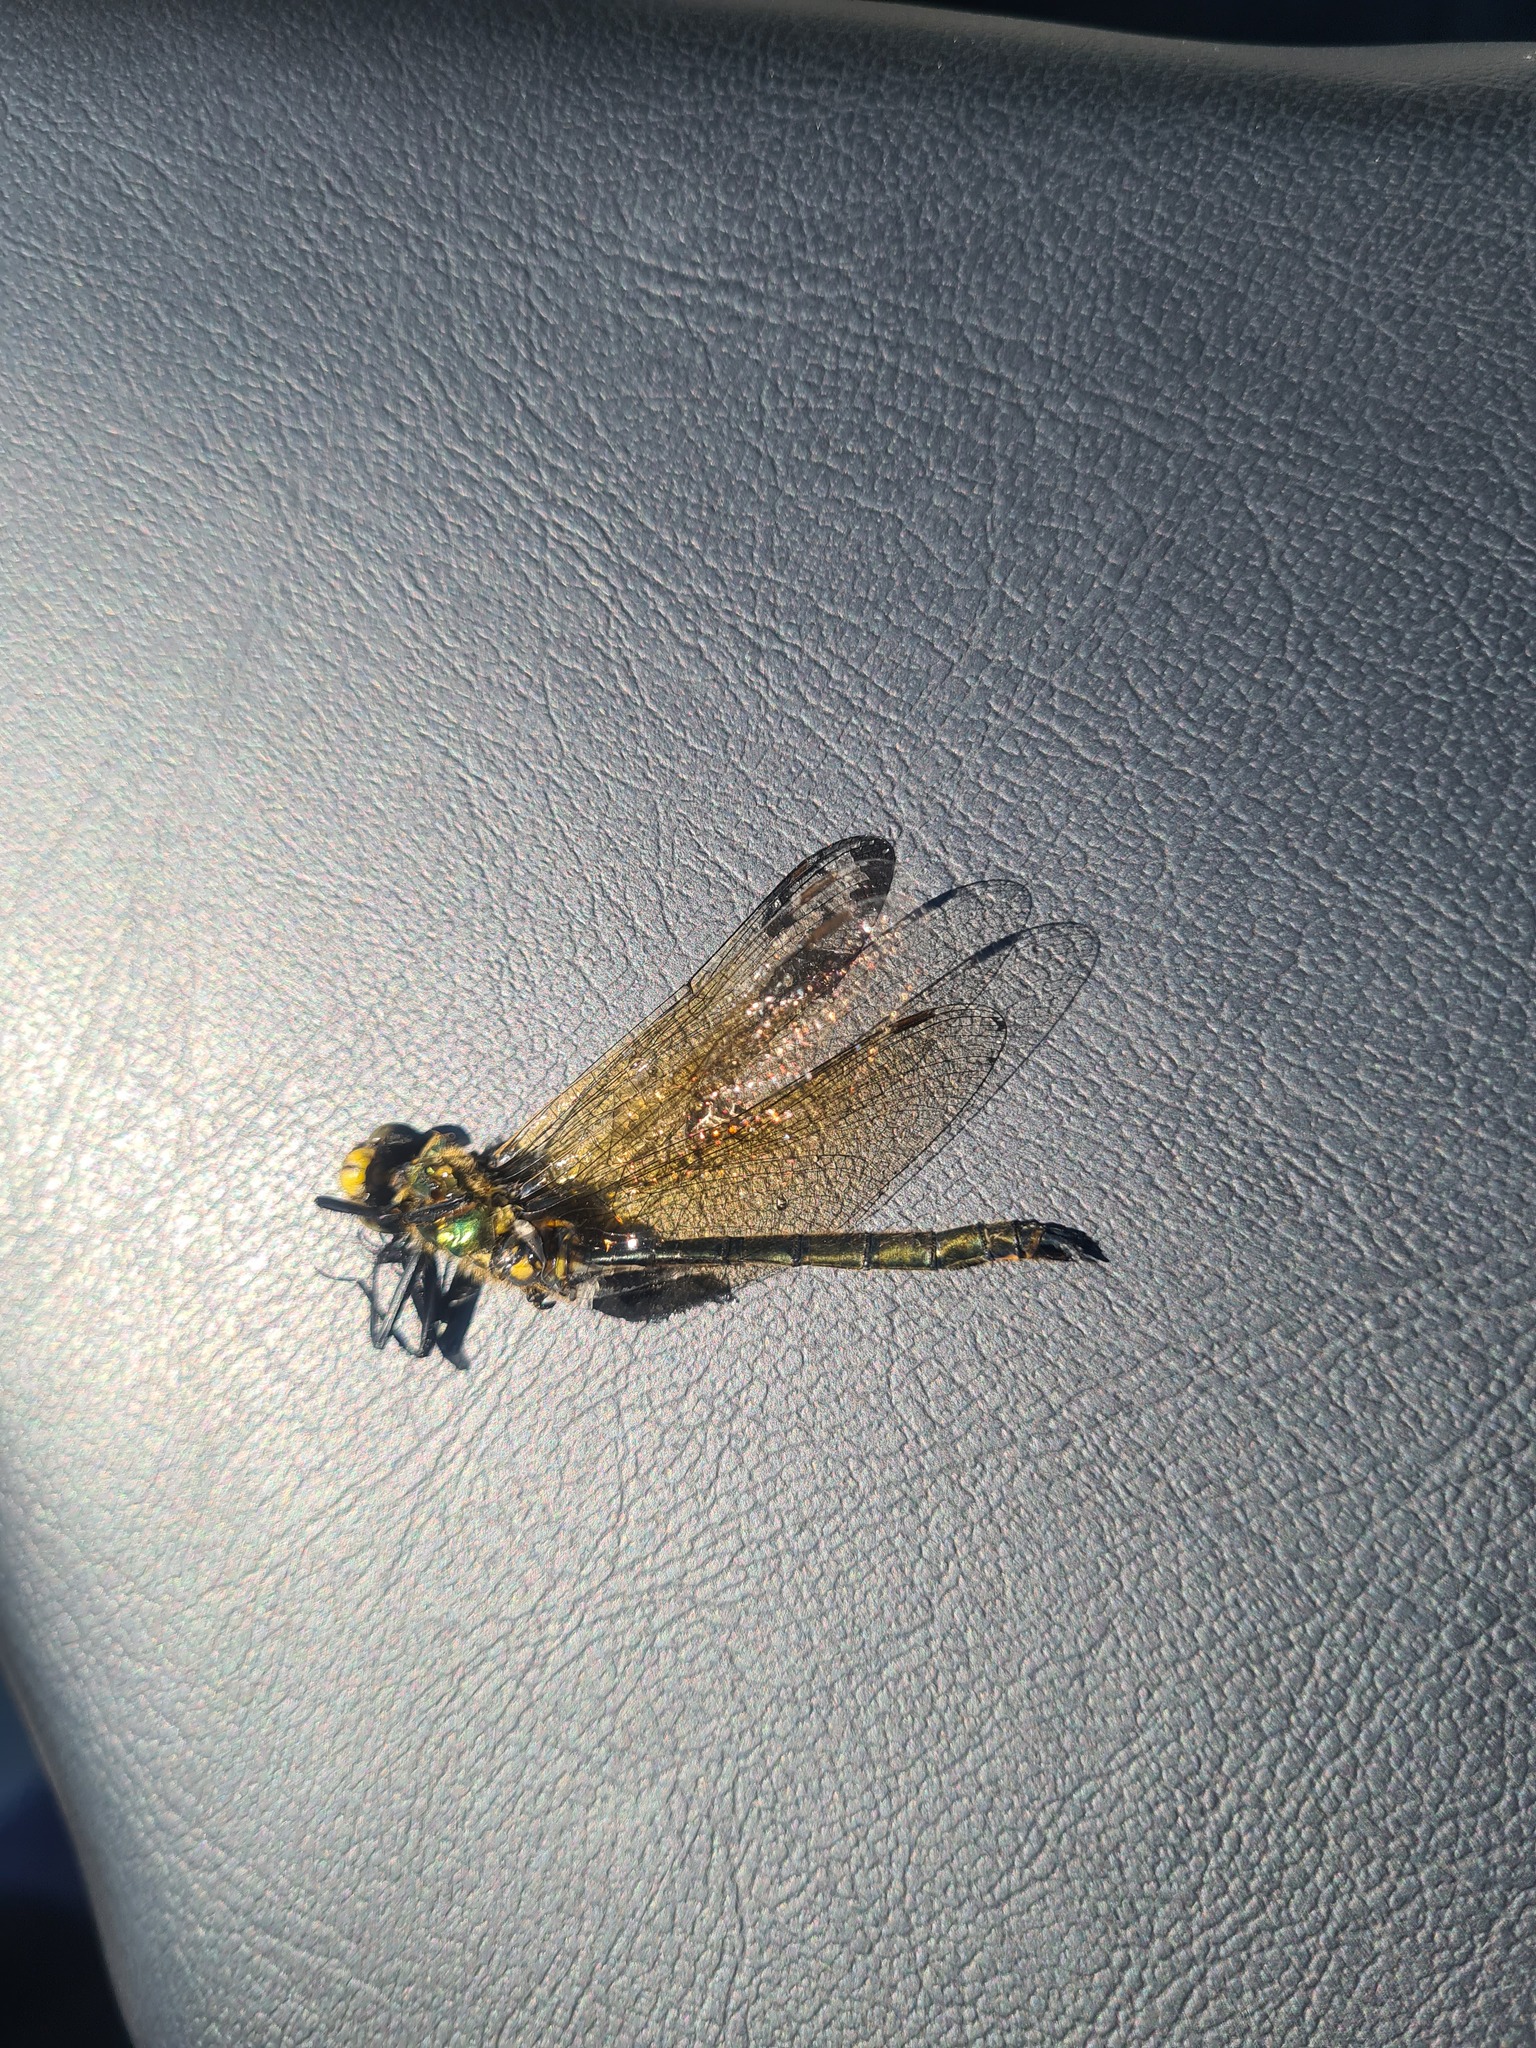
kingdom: Animalia
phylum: Arthropoda
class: Insecta
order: Odonata
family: Corduliidae
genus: Somatochlora
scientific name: Somatochlora metallica
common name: Brilliant emerald
